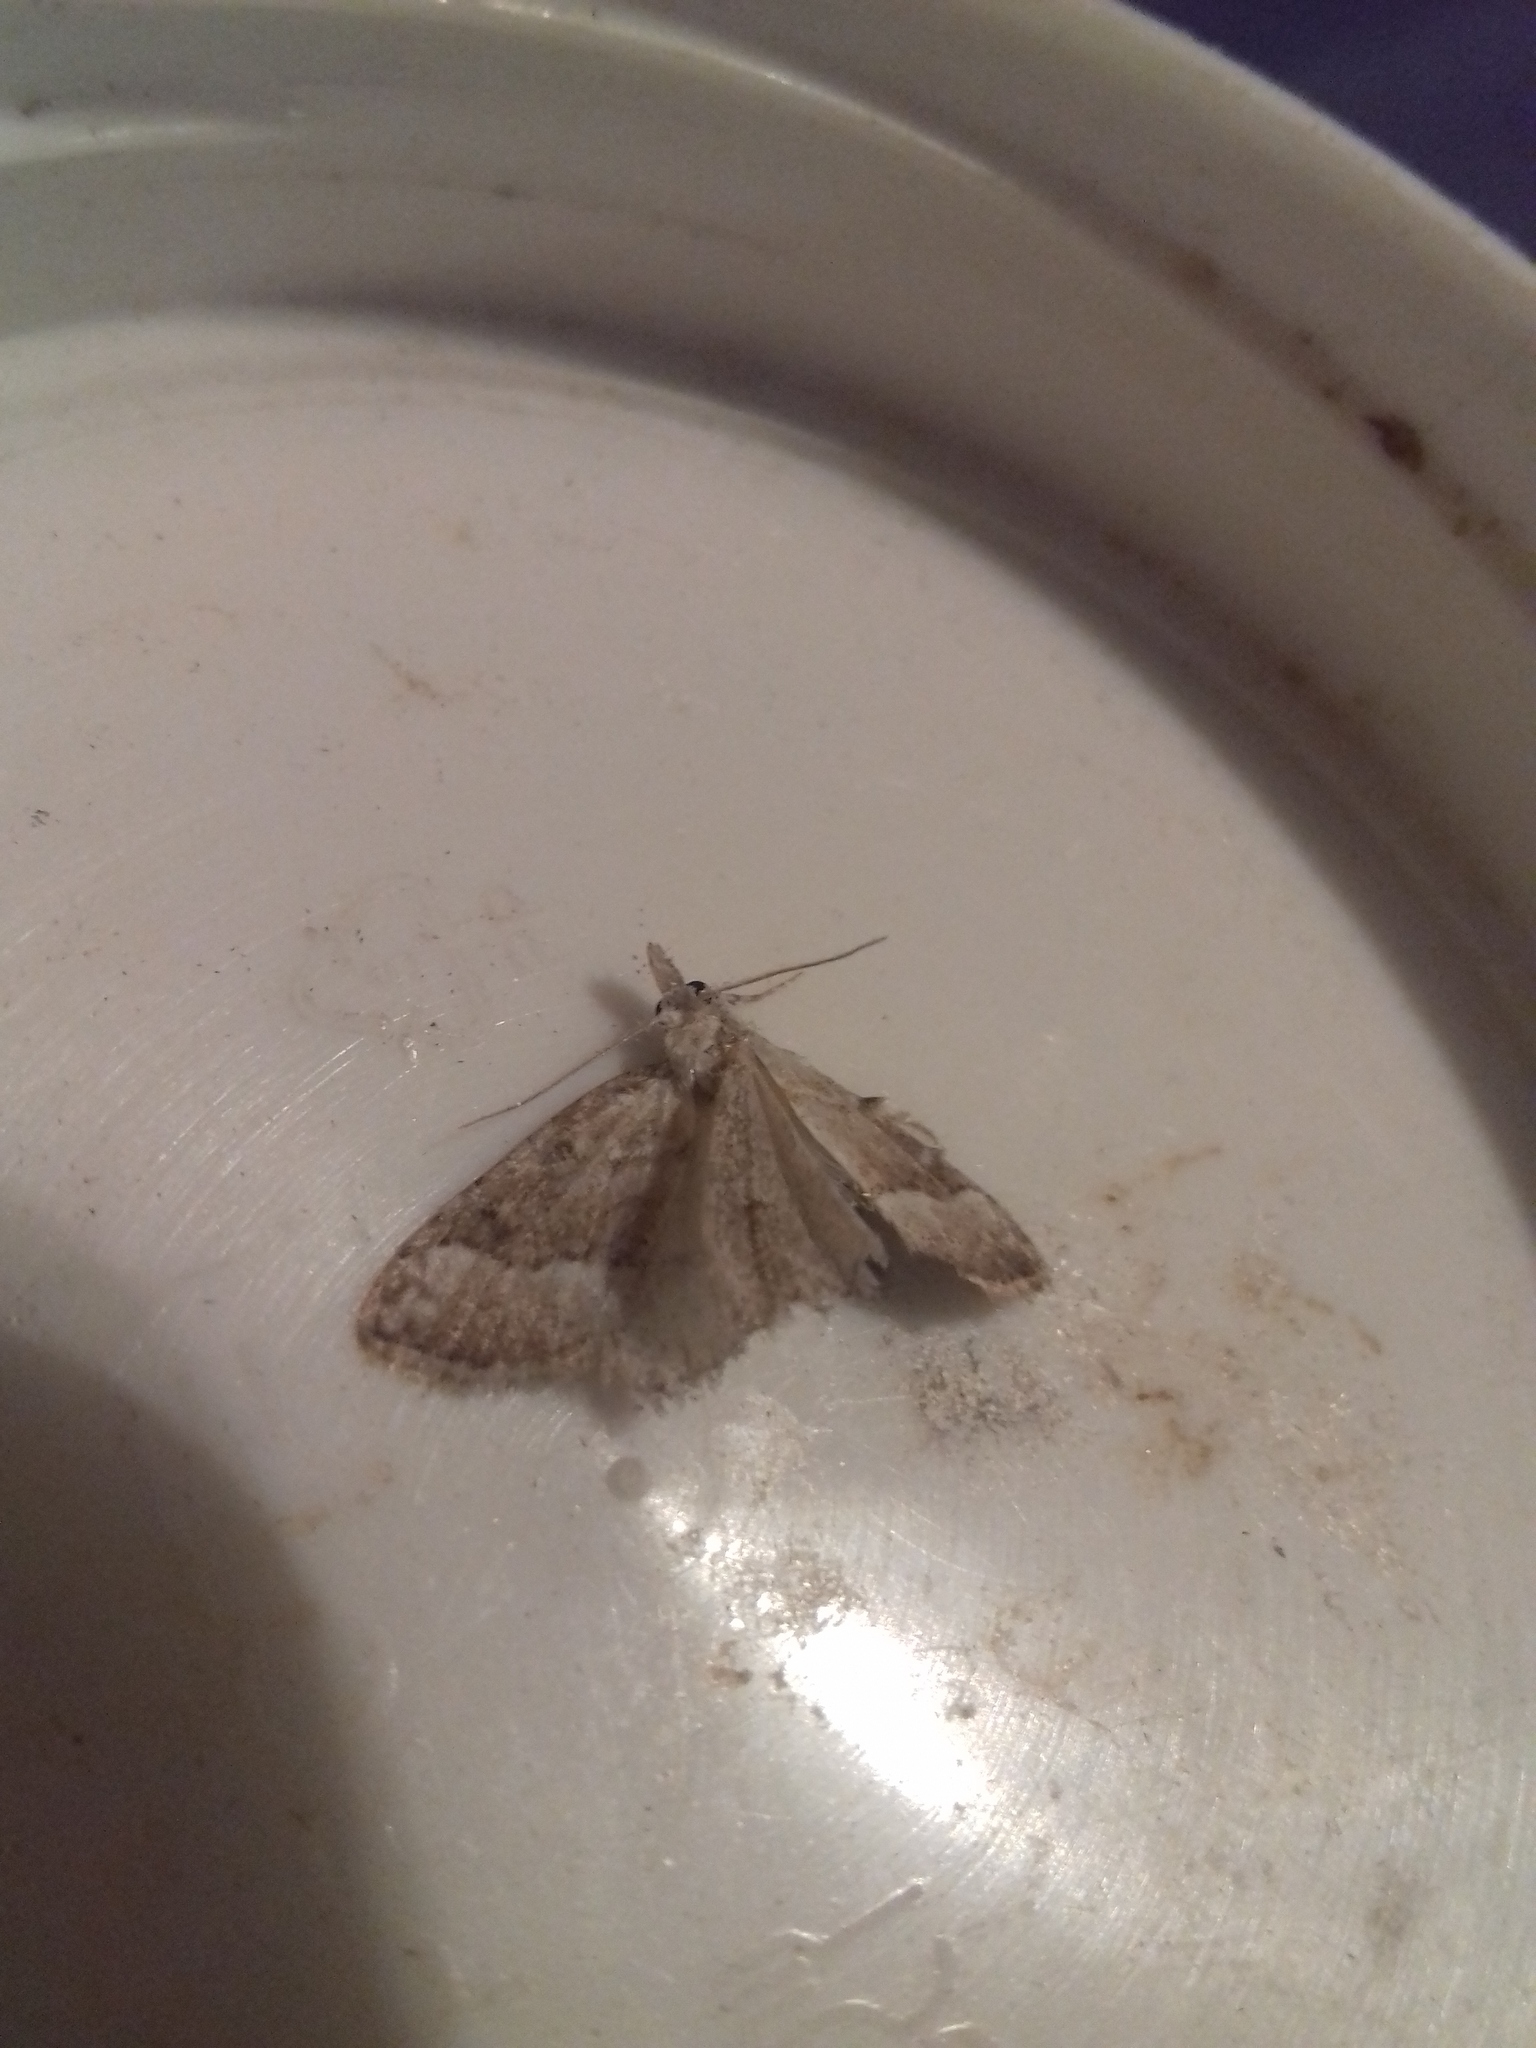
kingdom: Animalia
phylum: Arthropoda
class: Insecta
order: Lepidoptera
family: Nolidae
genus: Nola
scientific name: Nola aerugula
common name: Scarce black arches
